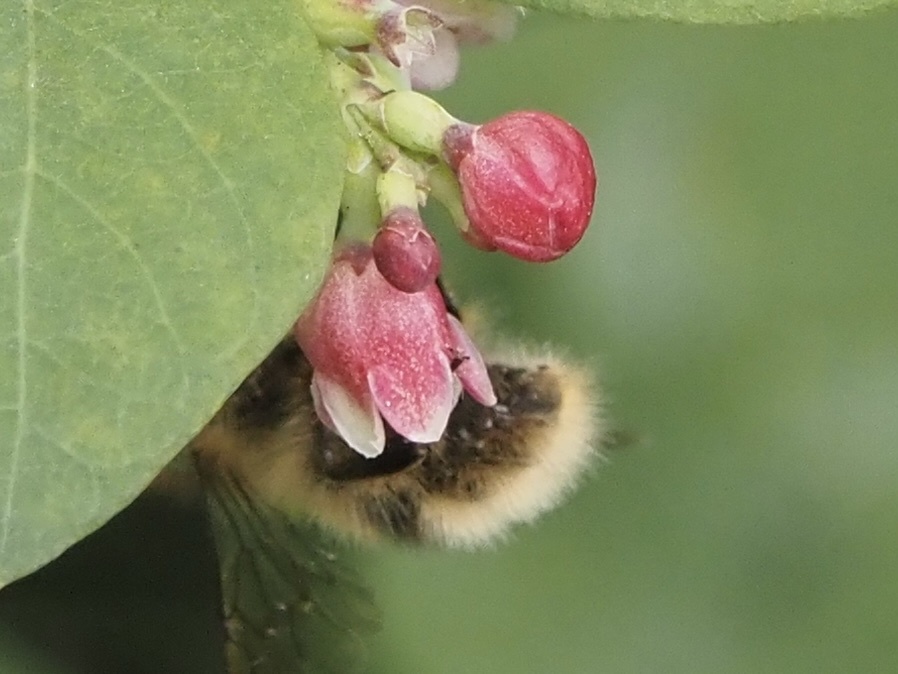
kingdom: Animalia
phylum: Arthropoda
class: Insecta
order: Hymenoptera
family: Apidae
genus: Bombus
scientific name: Bombus mixtus
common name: Fuzzy-horned bumble bee
